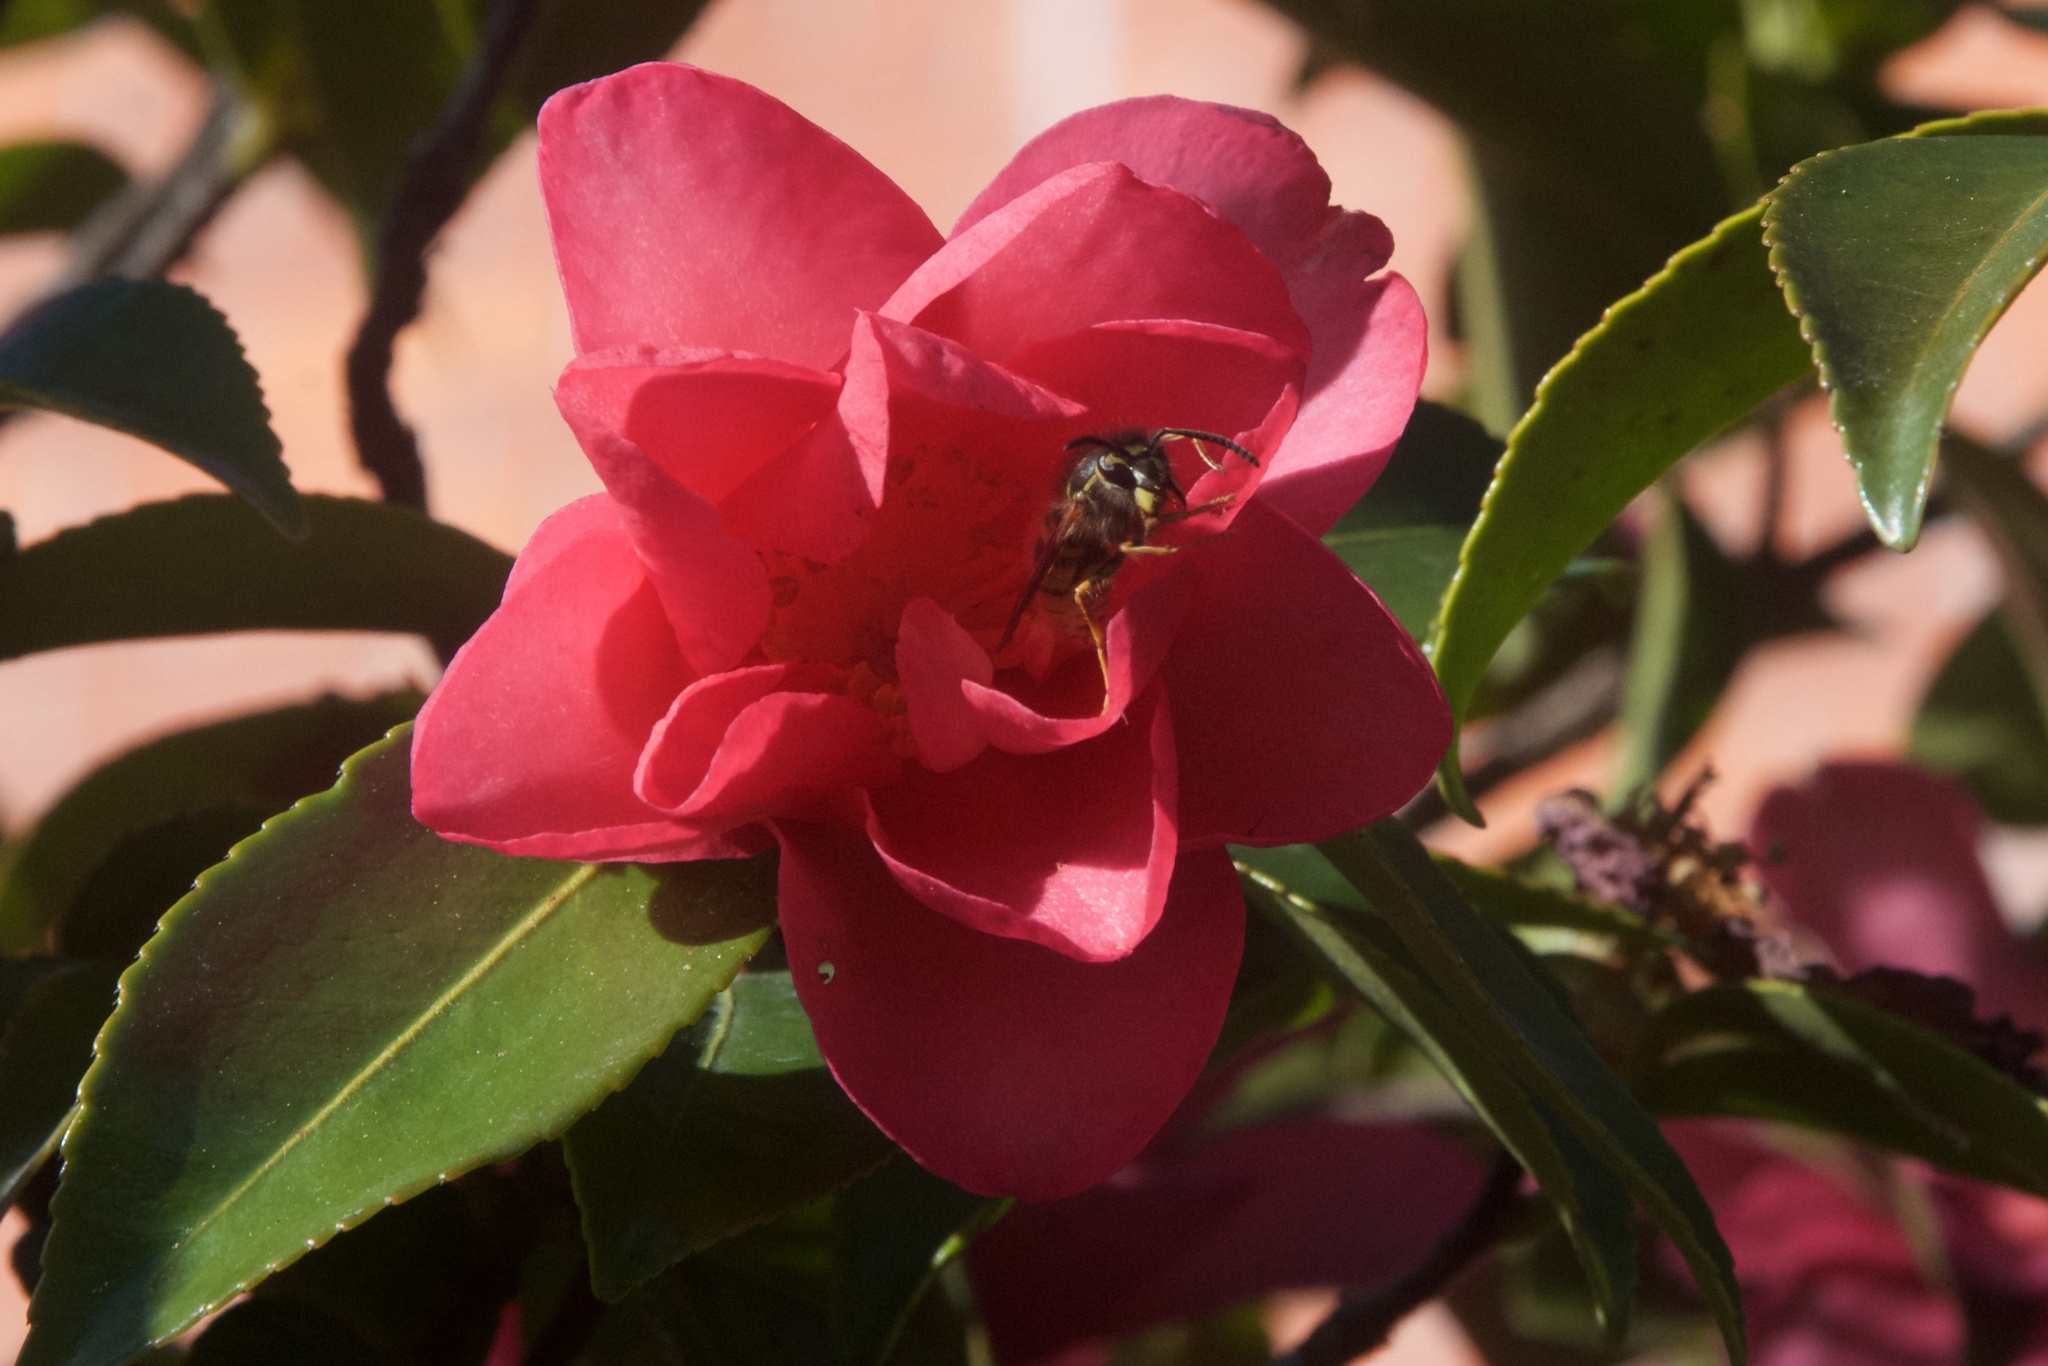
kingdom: Animalia
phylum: Arthropoda
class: Insecta
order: Hymenoptera
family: Vespidae
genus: Vespula
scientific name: Vespula vulgaris
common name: Common wasp
